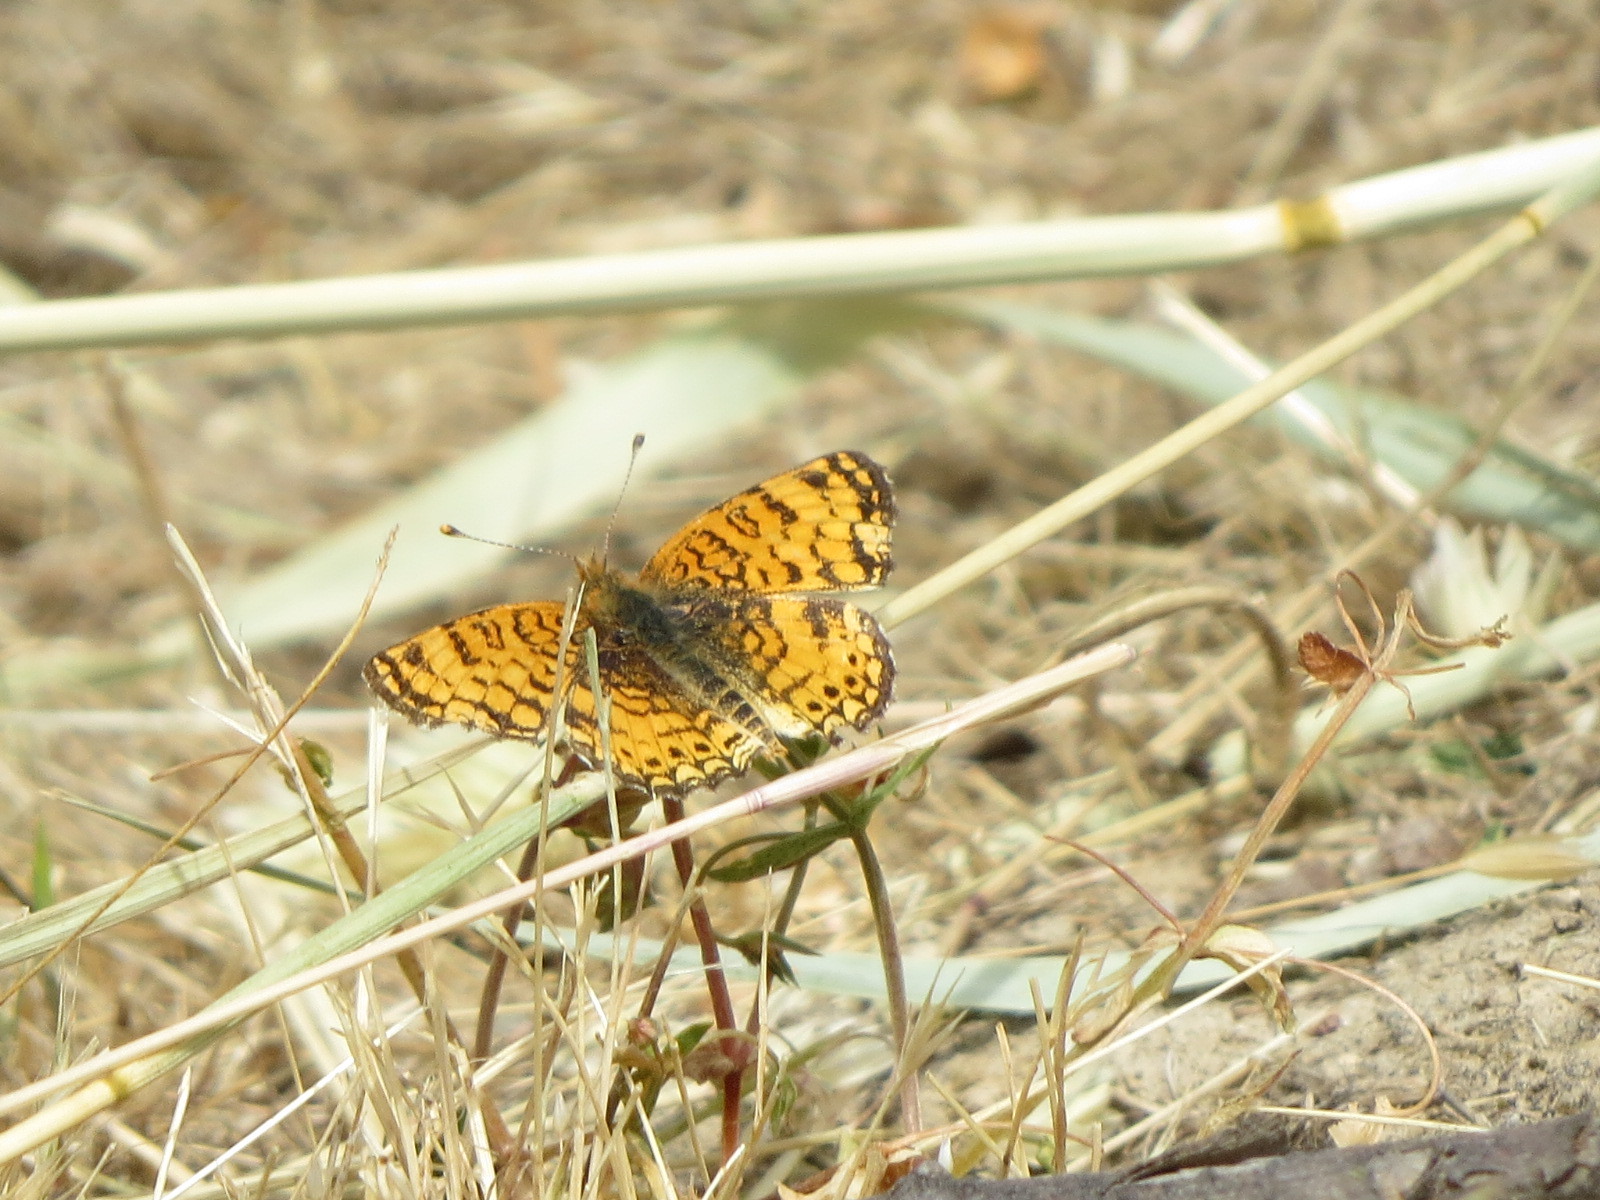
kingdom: Animalia
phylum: Arthropoda
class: Insecta
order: Lepidoptera
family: Nymphalidae
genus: Eresia
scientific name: Eresia aveyrona
